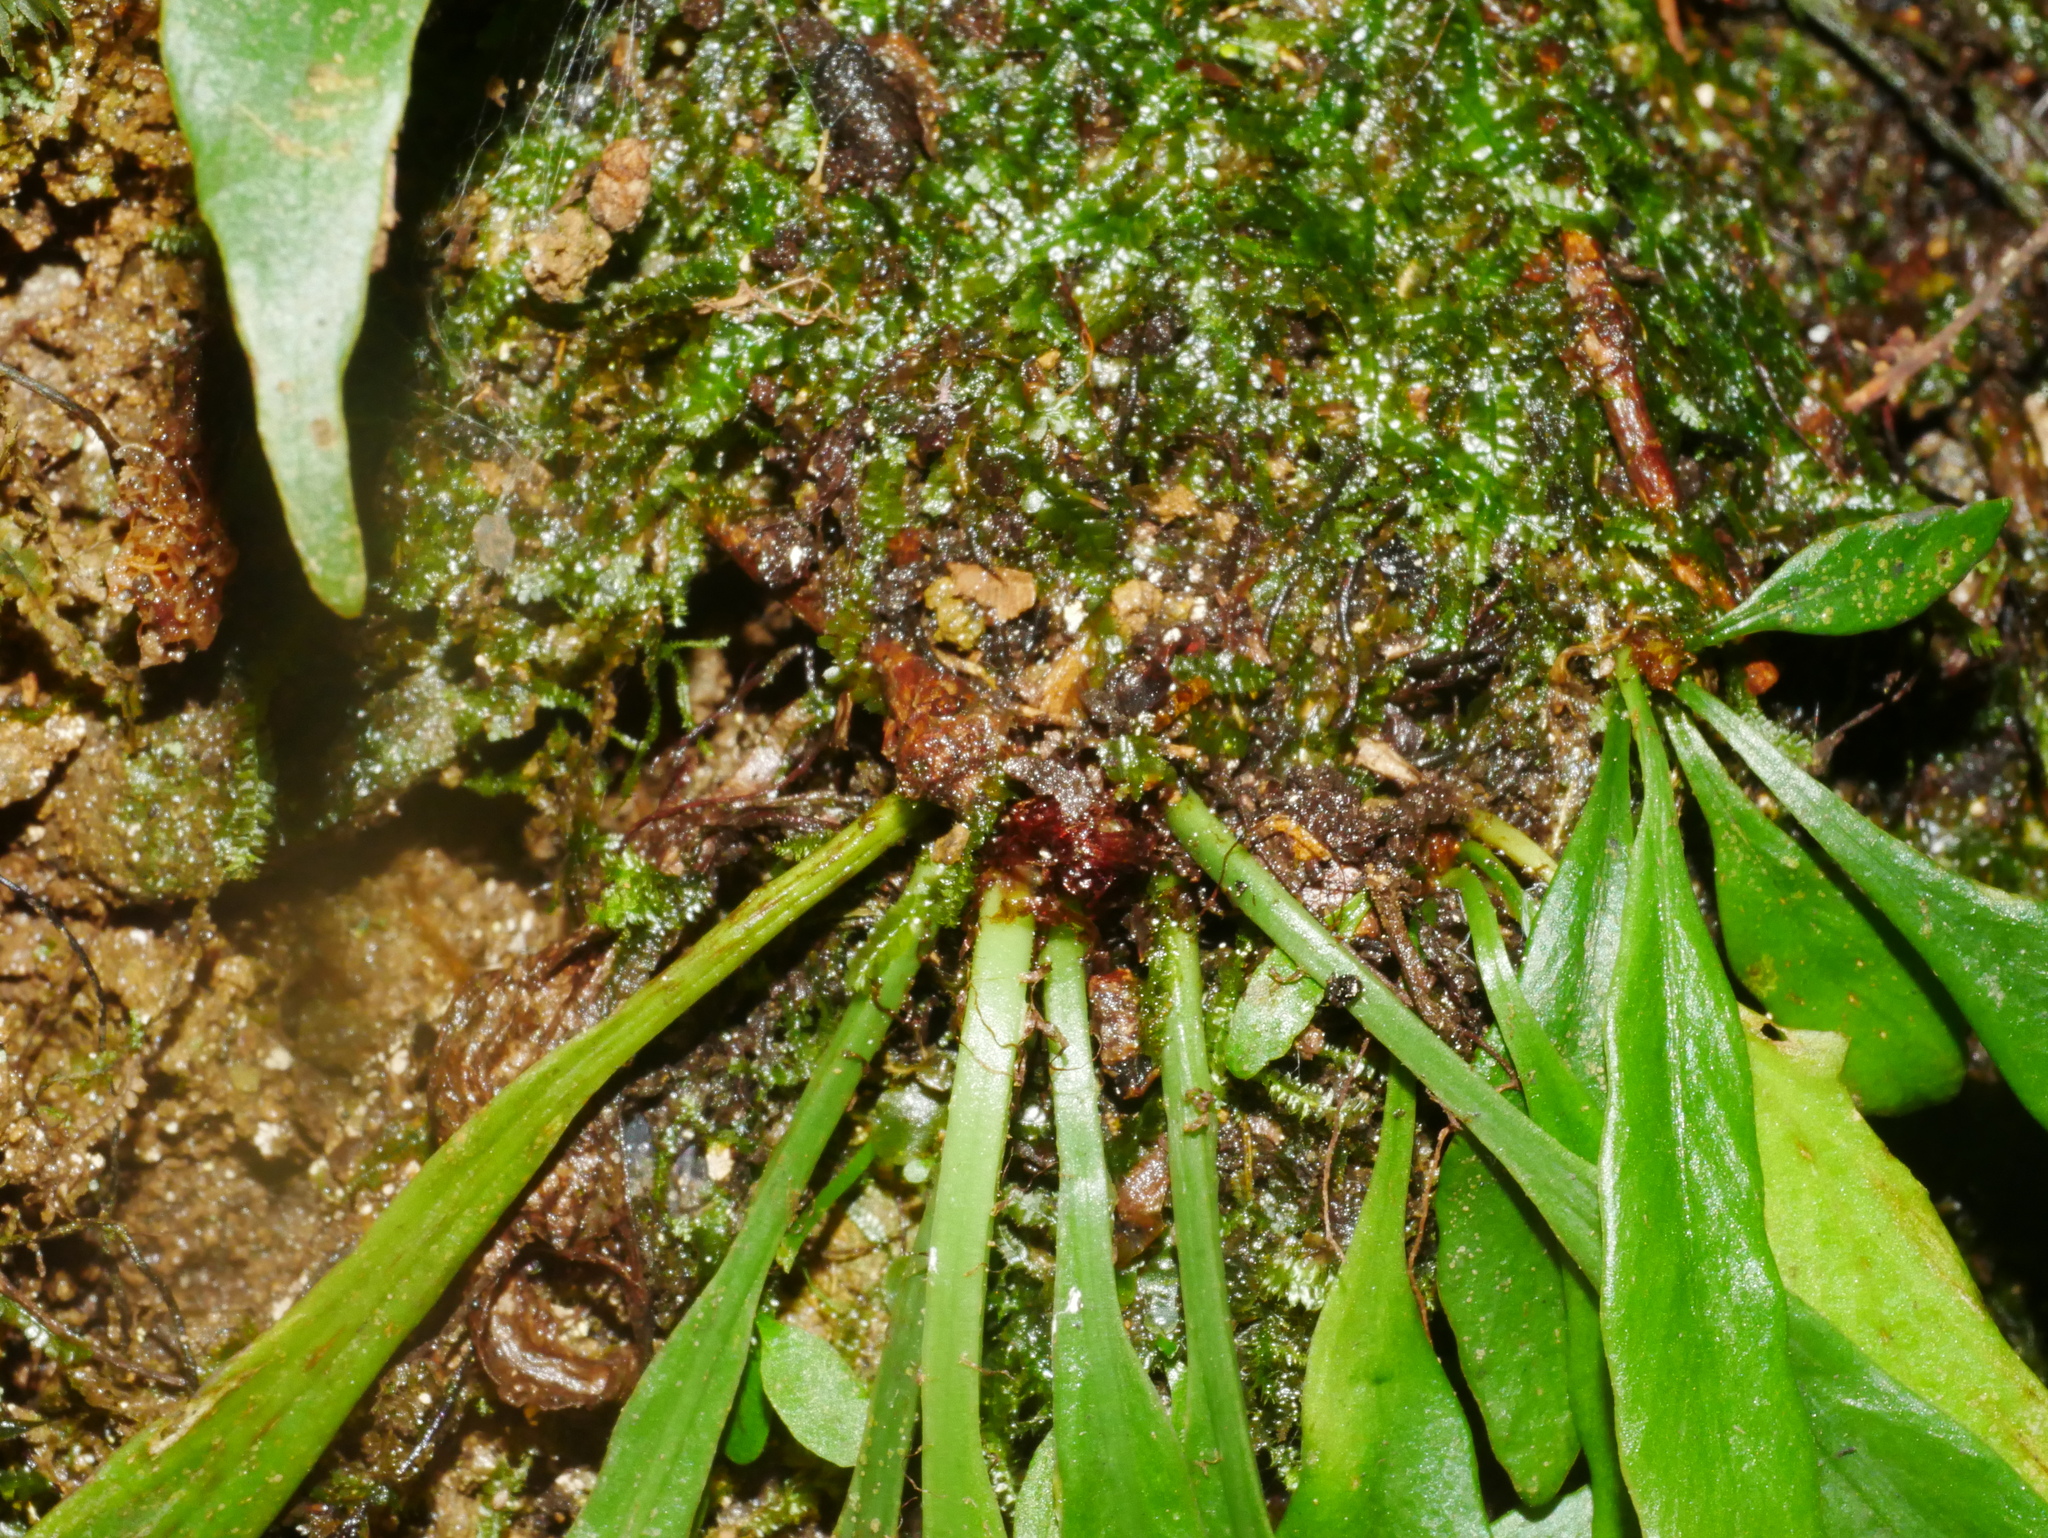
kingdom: Plantae
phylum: Tracheophyta
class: Polypodiopsida
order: Polypodiales
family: Aspleniaceae
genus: Asplenium
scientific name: Asplenium ensiforme
